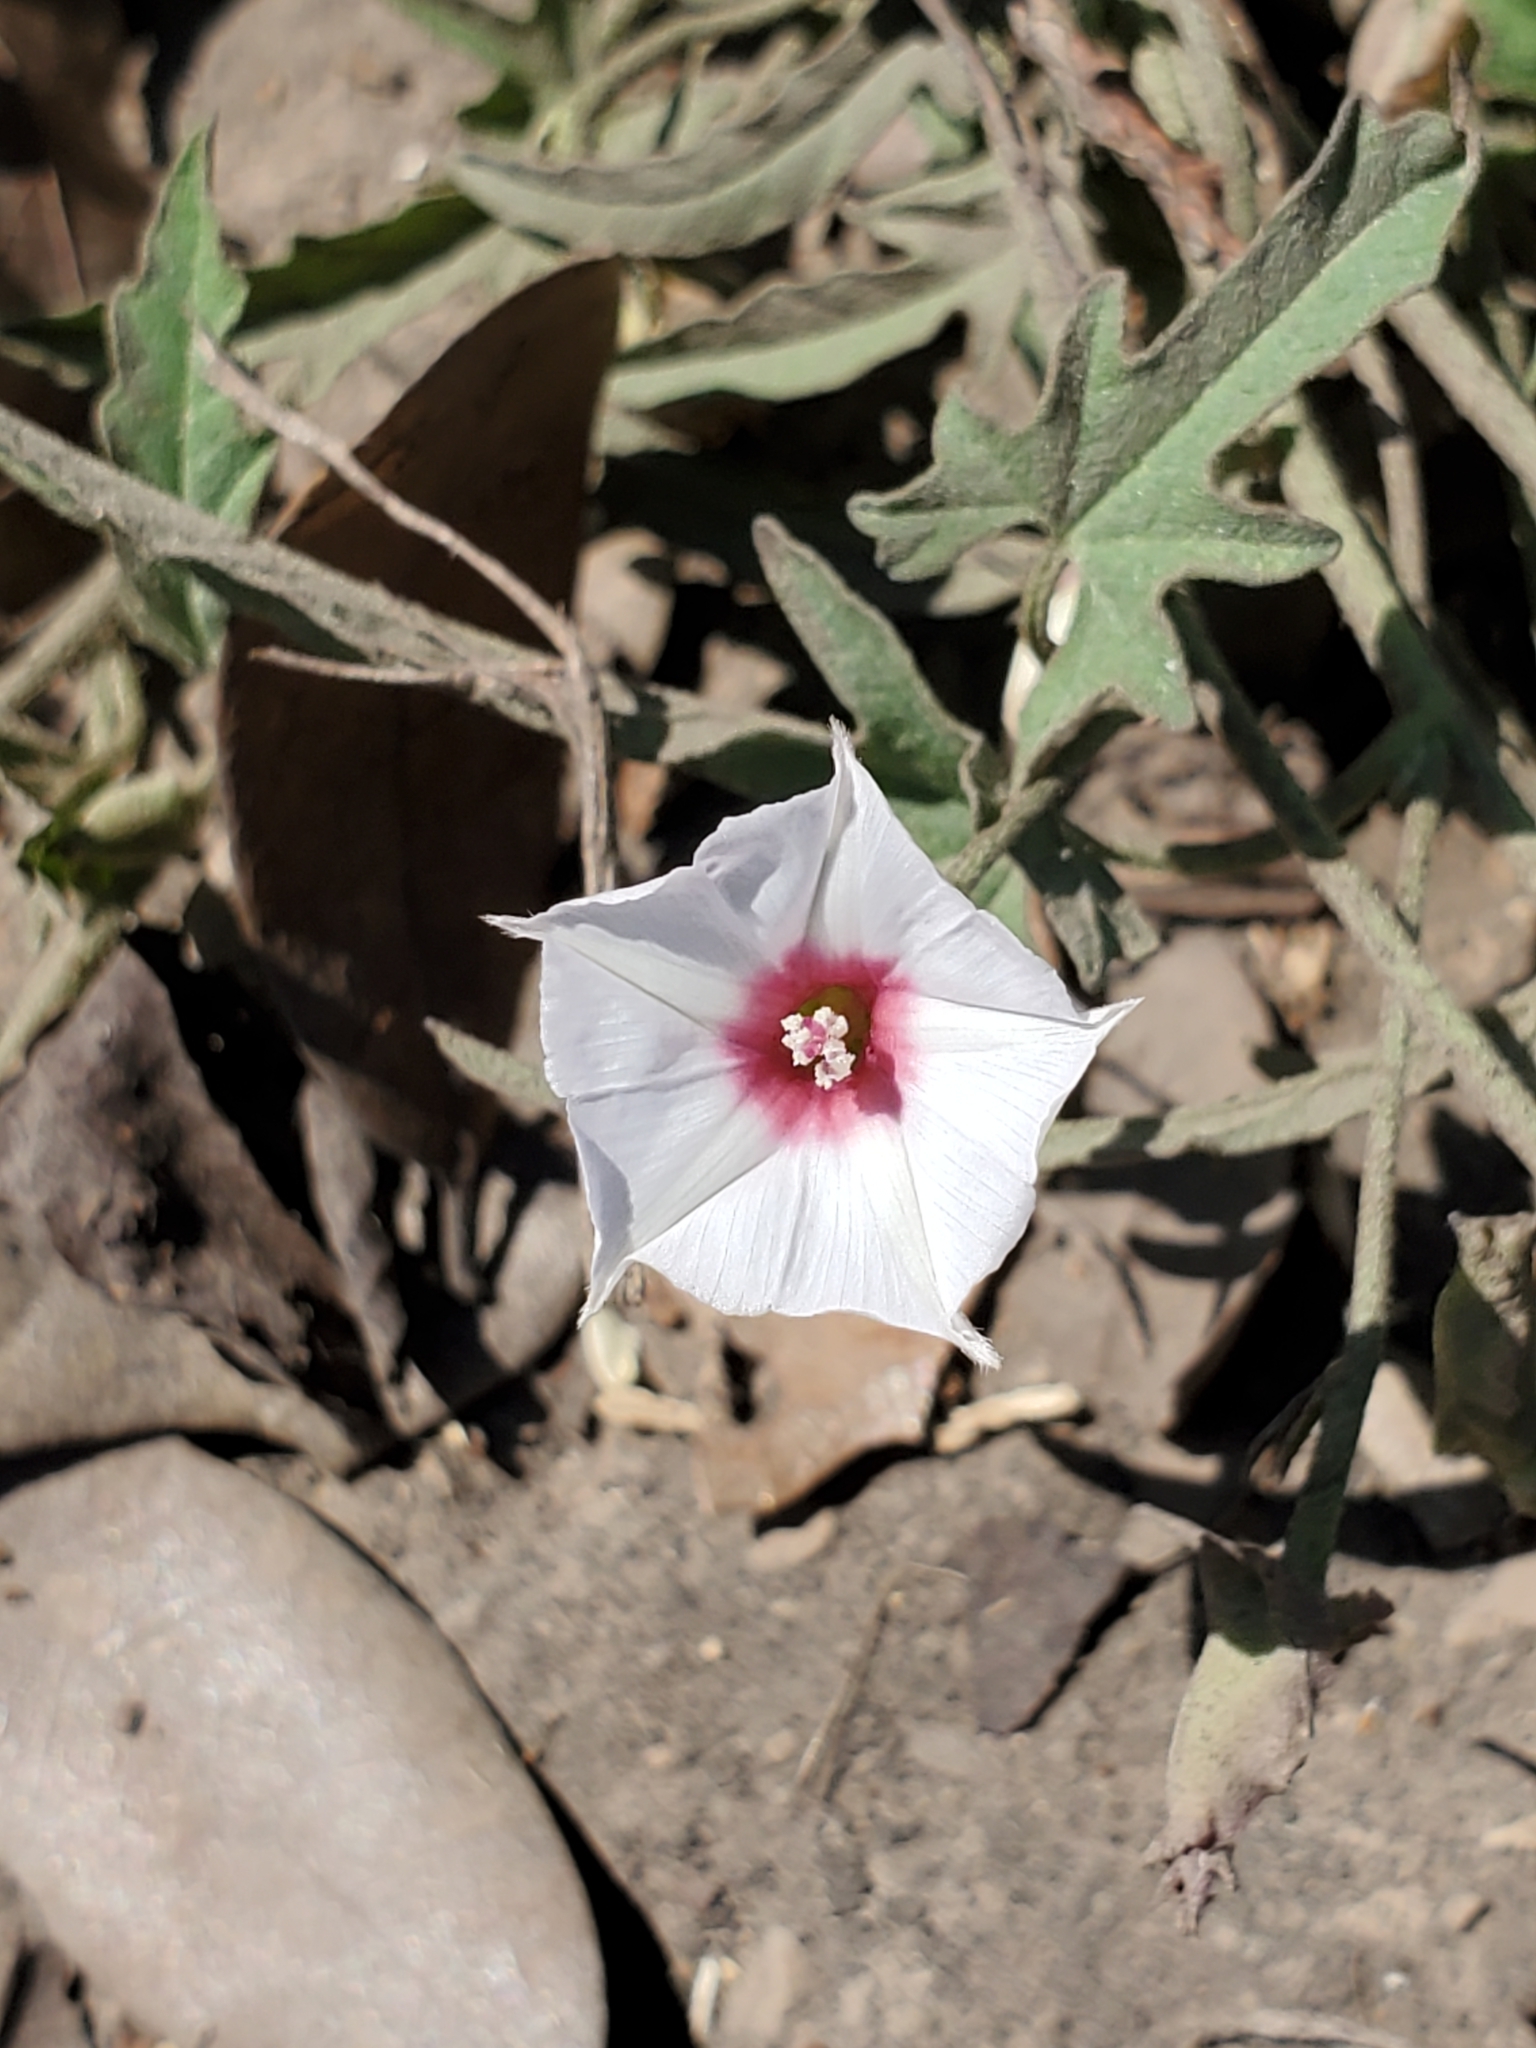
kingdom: Plantae
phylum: Tracheophyta
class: Magnoliopsida
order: Solanales
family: Convolvulaceae
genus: Convolvulus
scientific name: Convolvulus equitans
